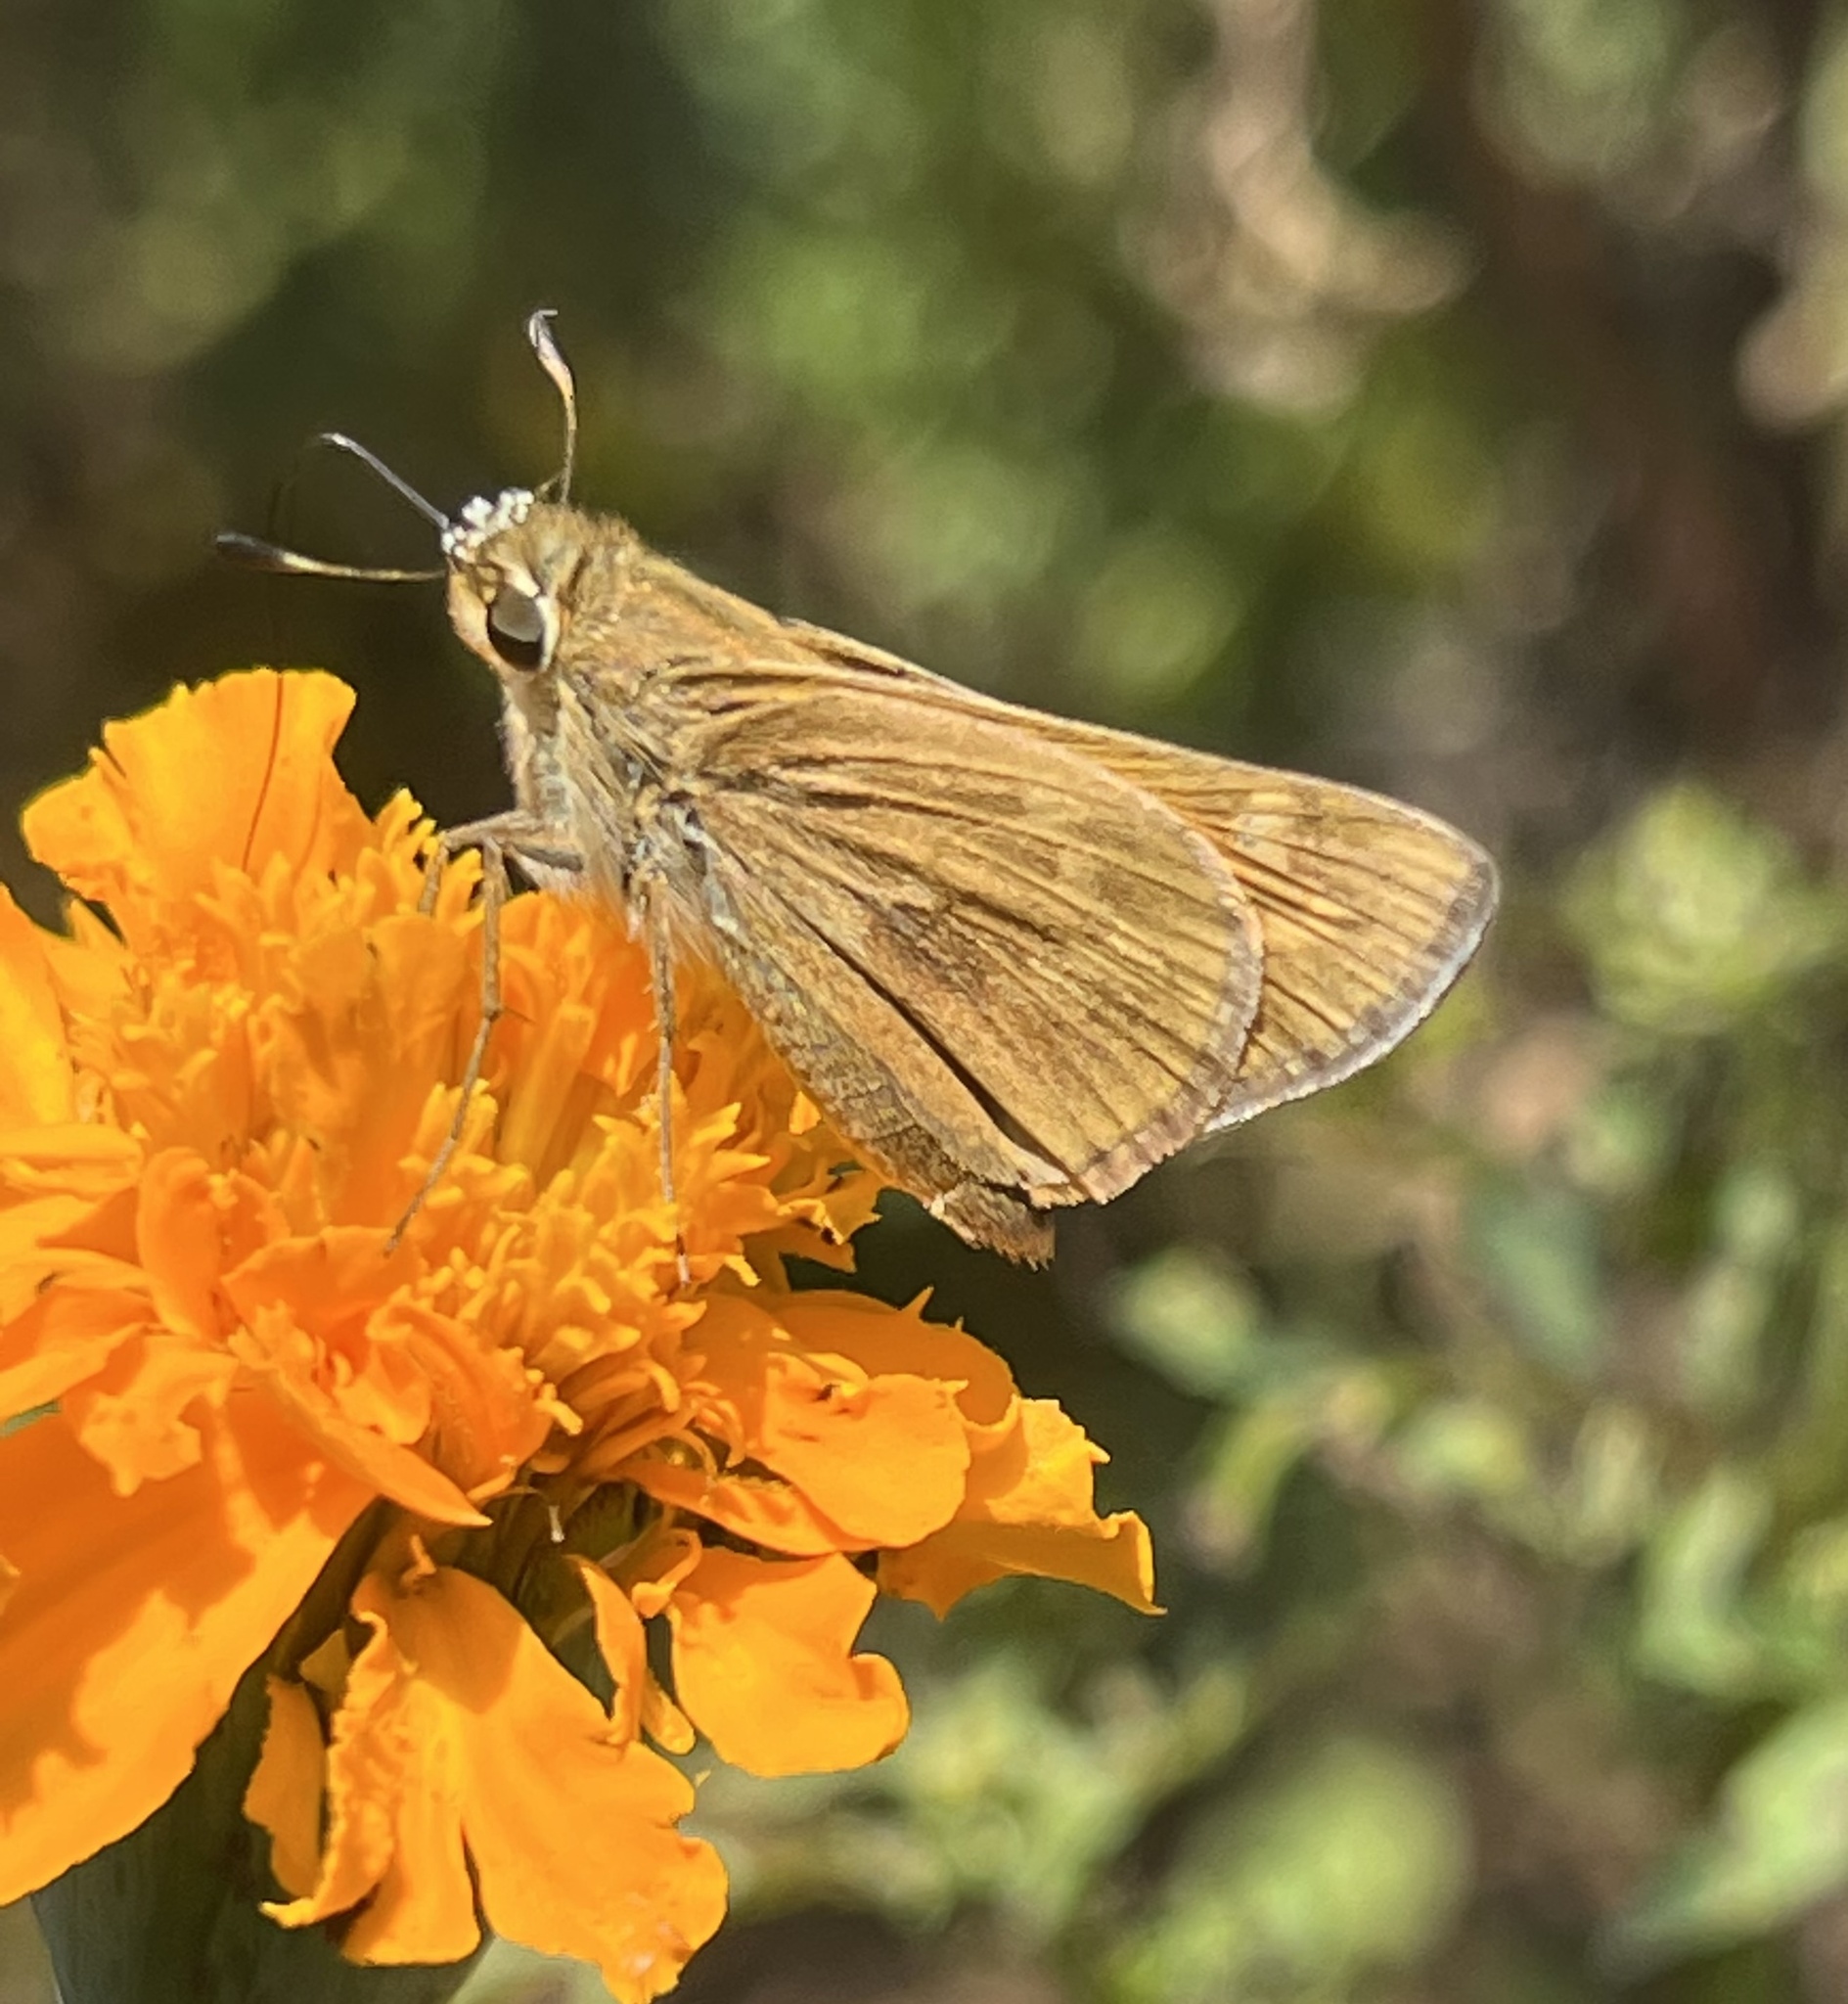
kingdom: Animalia
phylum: Arthropoda
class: Insecta
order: Lepidoptera
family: Hesperiidae
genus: Atalopedes
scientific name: Atalopedes
